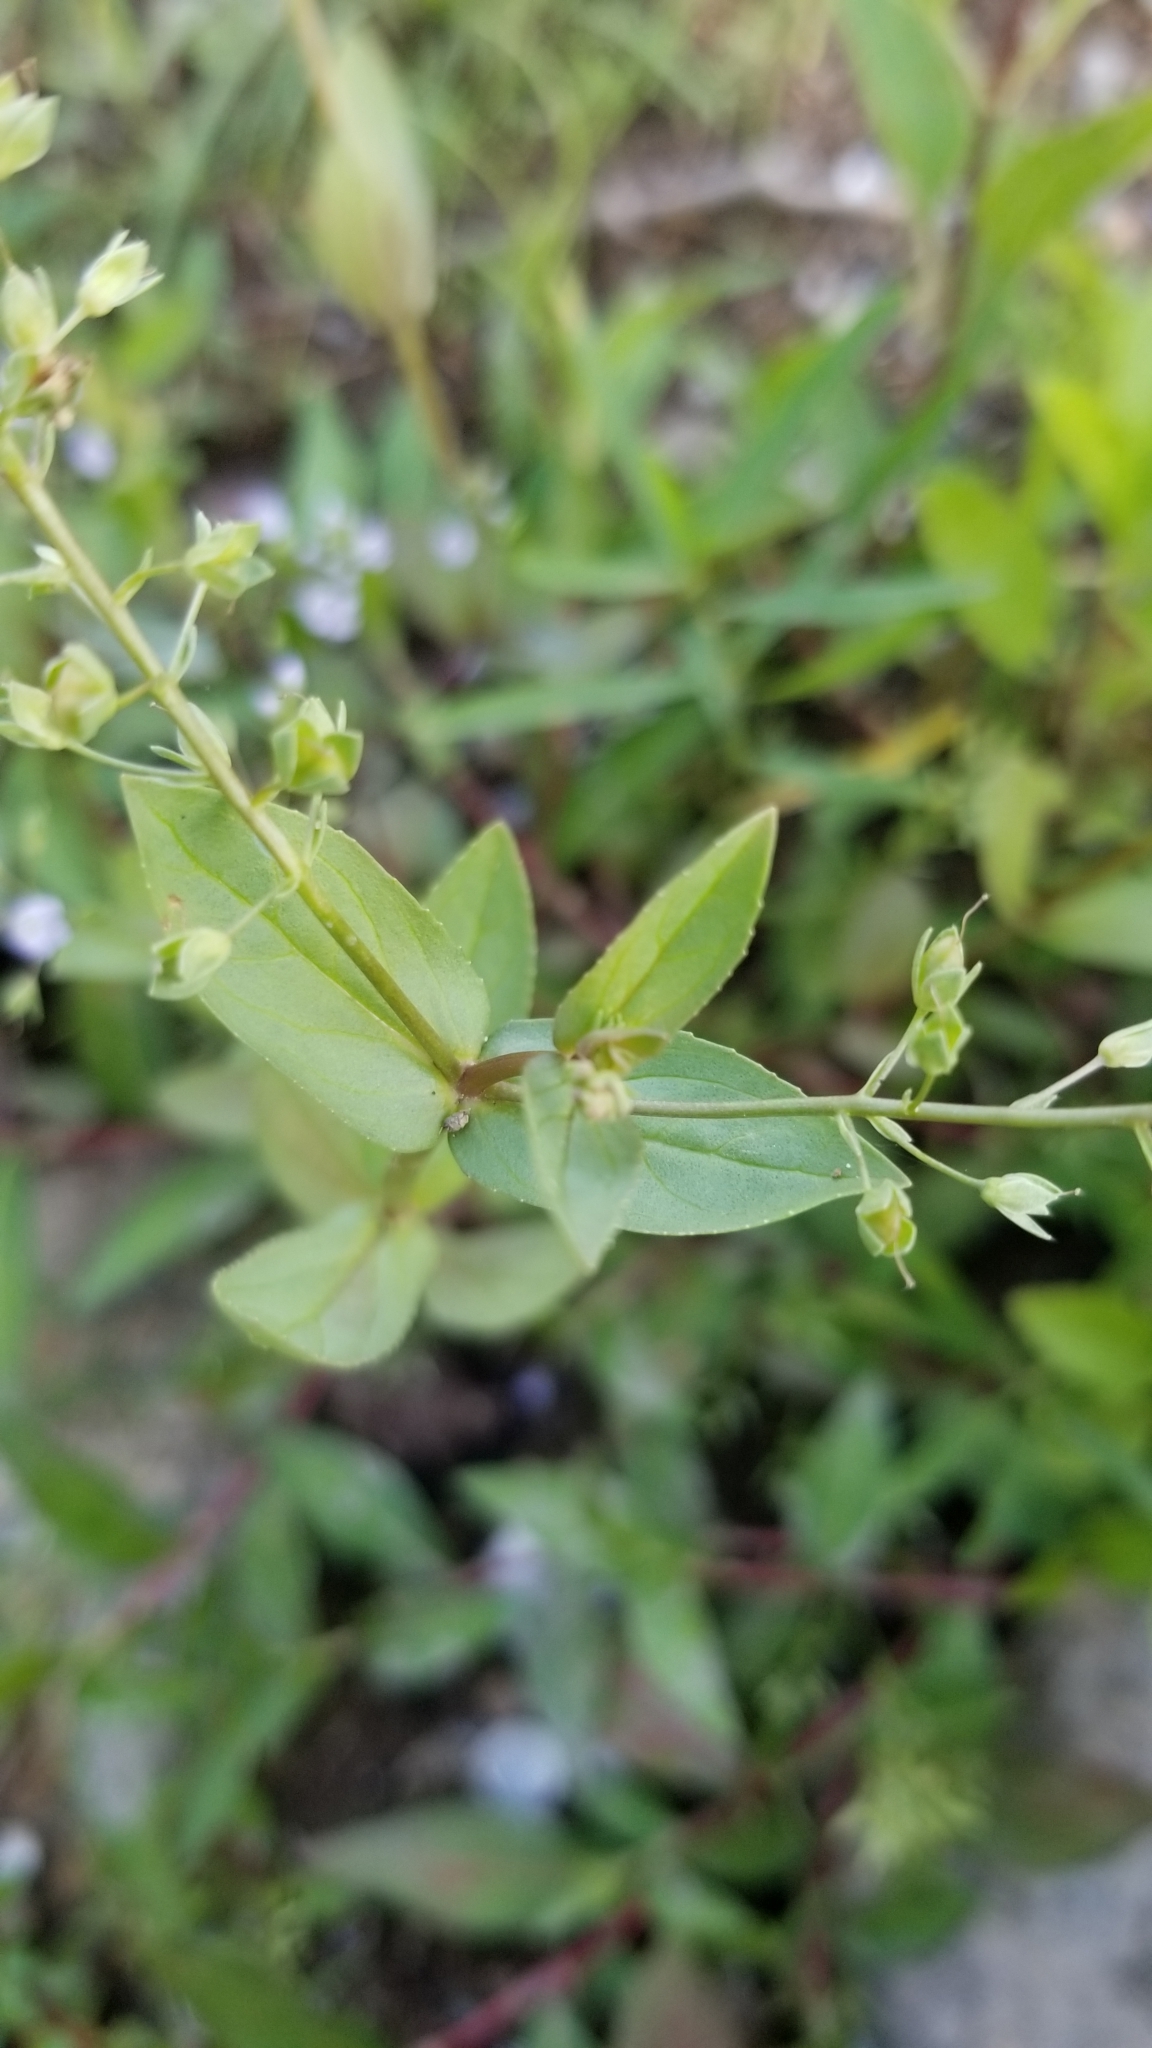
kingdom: Plantae
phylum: Tracheophyta
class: Magnoliopsida
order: Lamiales
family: Plantaginaceae
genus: Veronica
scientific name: Veronica anagallis-aquatica
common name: Water speedwell
